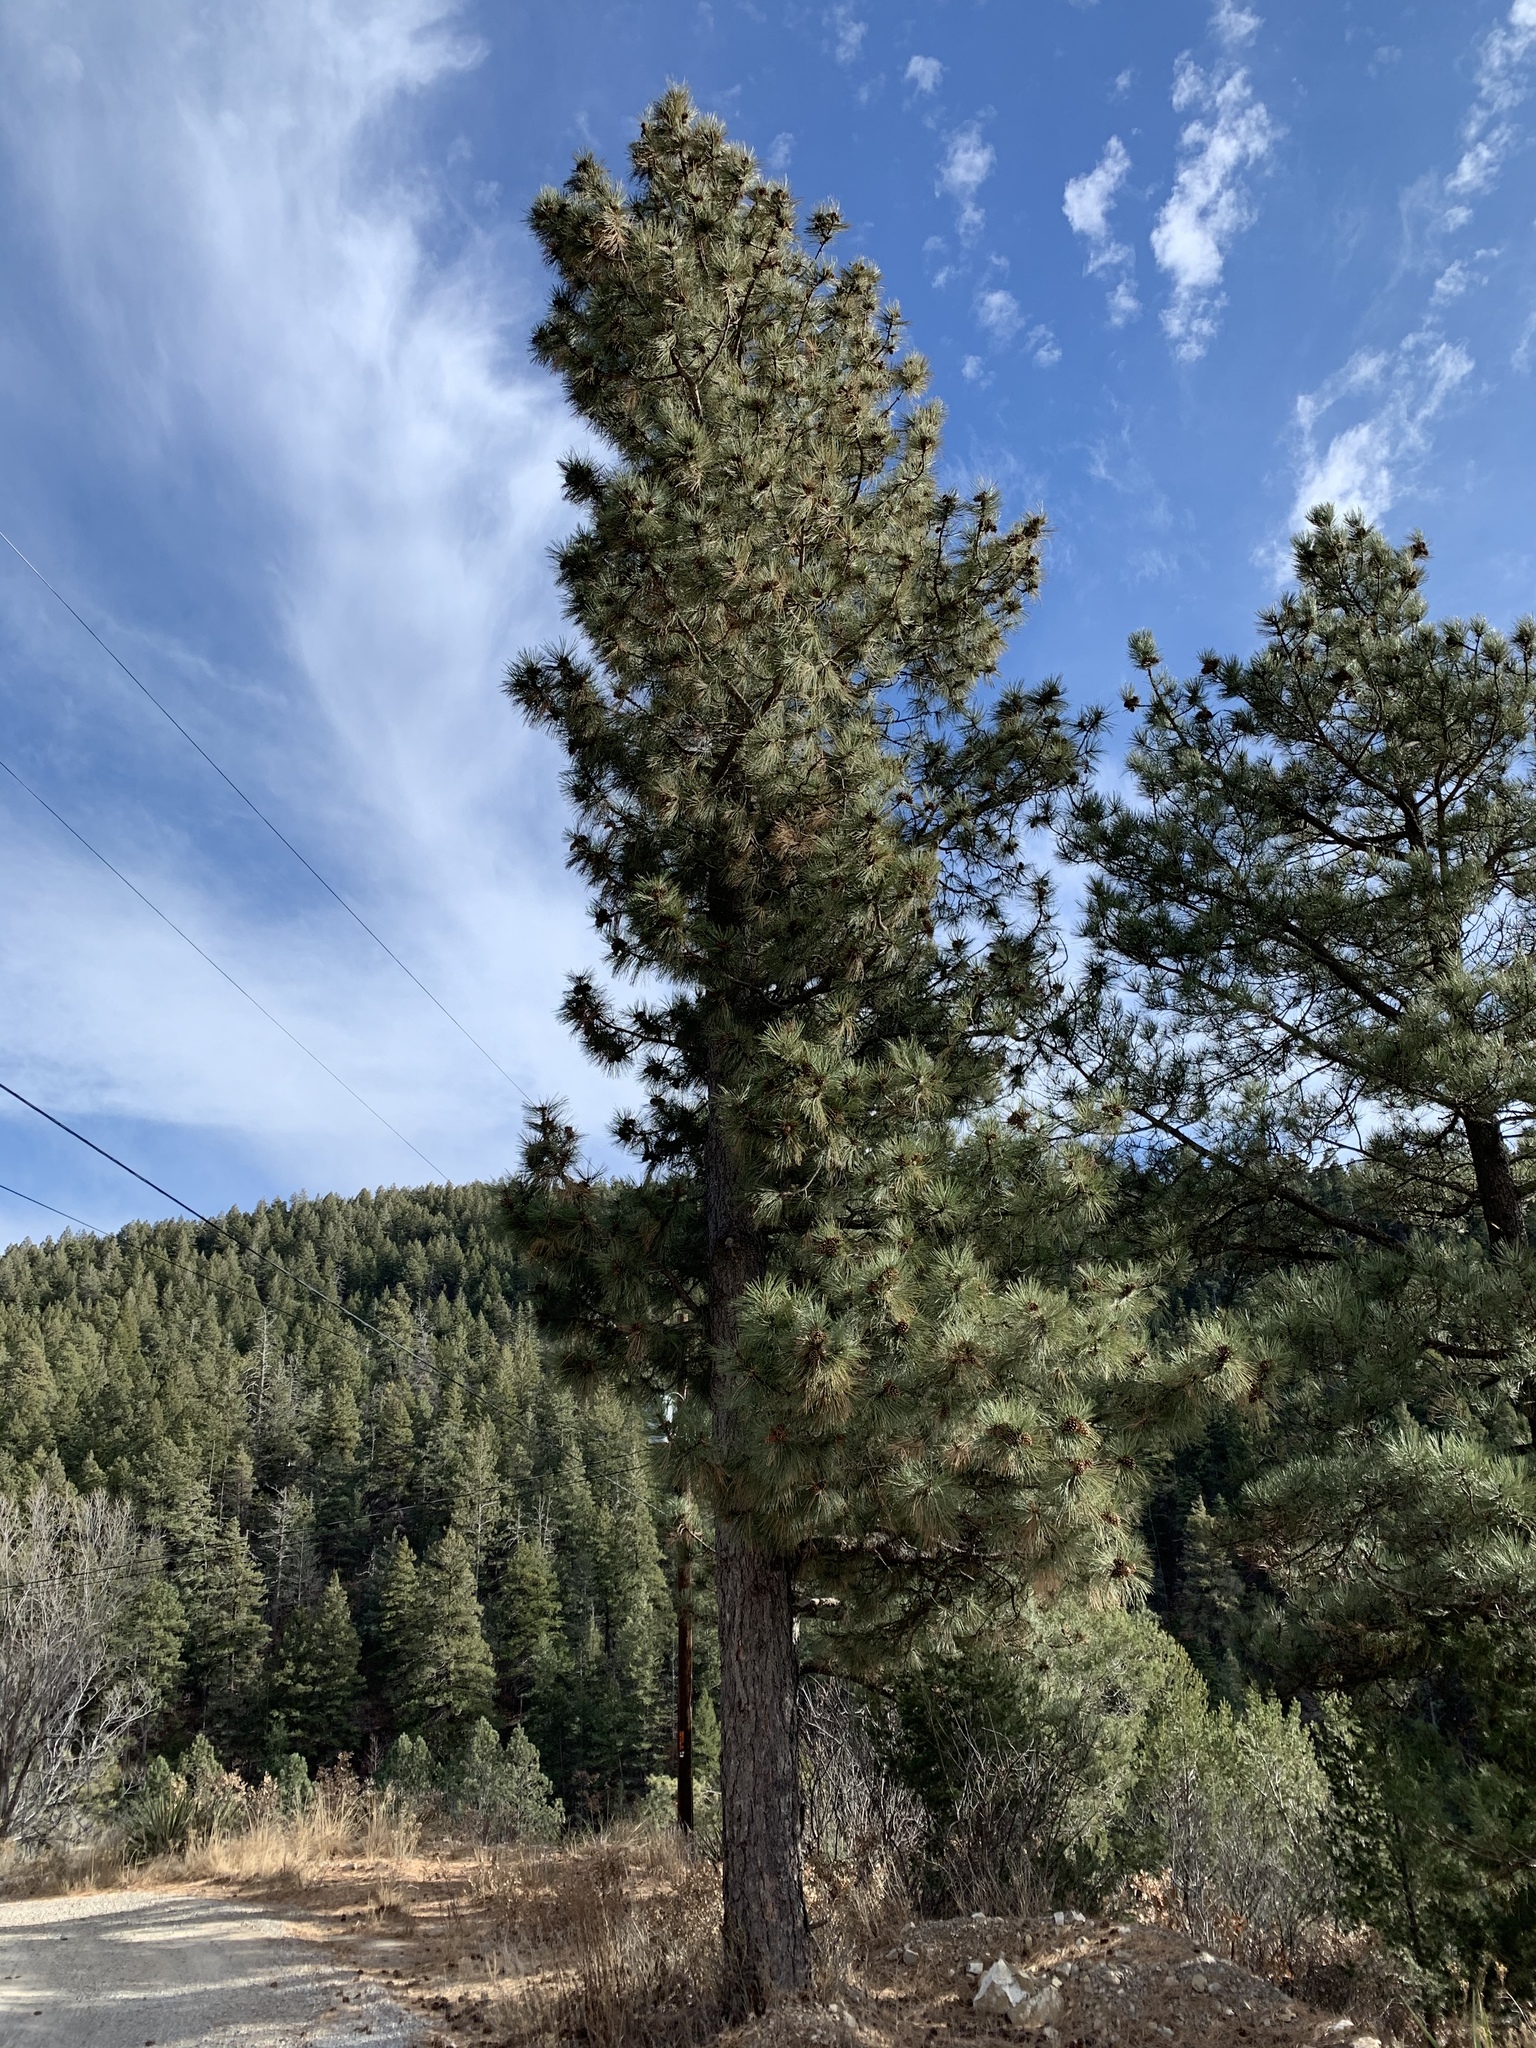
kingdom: Plantae
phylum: Tracheophyta
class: Pinopsida
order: Pinales
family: Pinaceae
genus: Pinus
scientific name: Pinus ponderosa
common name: Western yellow-pine
